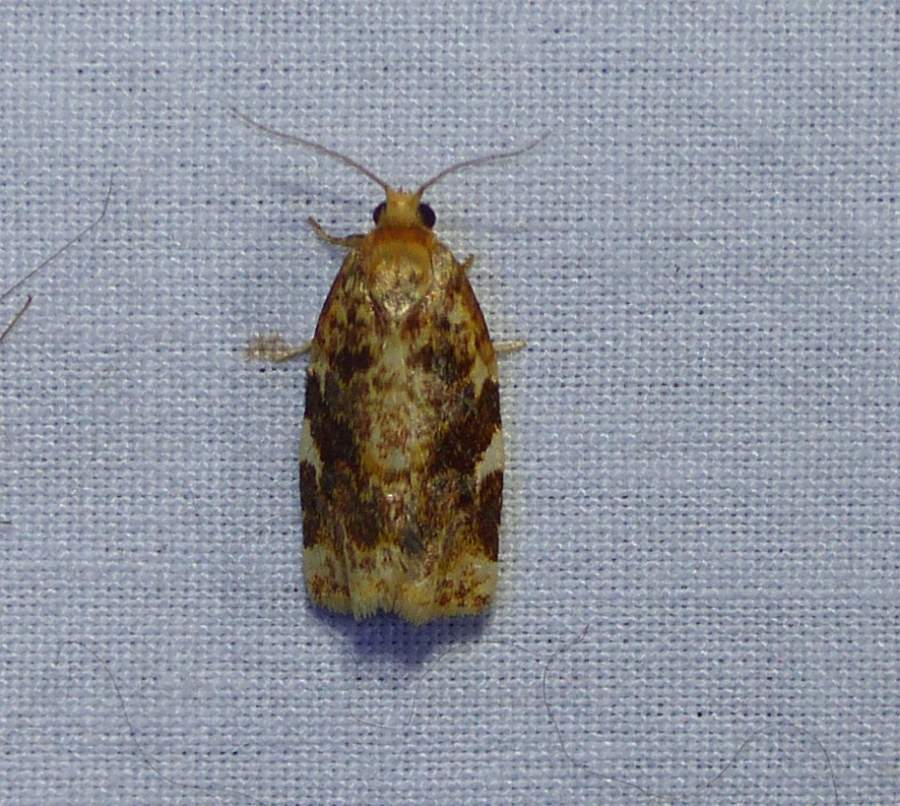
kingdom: Animalia
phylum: Arthropoda
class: Insecta
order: Lepidoptera
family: Tortricidae
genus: Archips
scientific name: Archips argyrospila
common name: Fruit-tree leafroller moth
